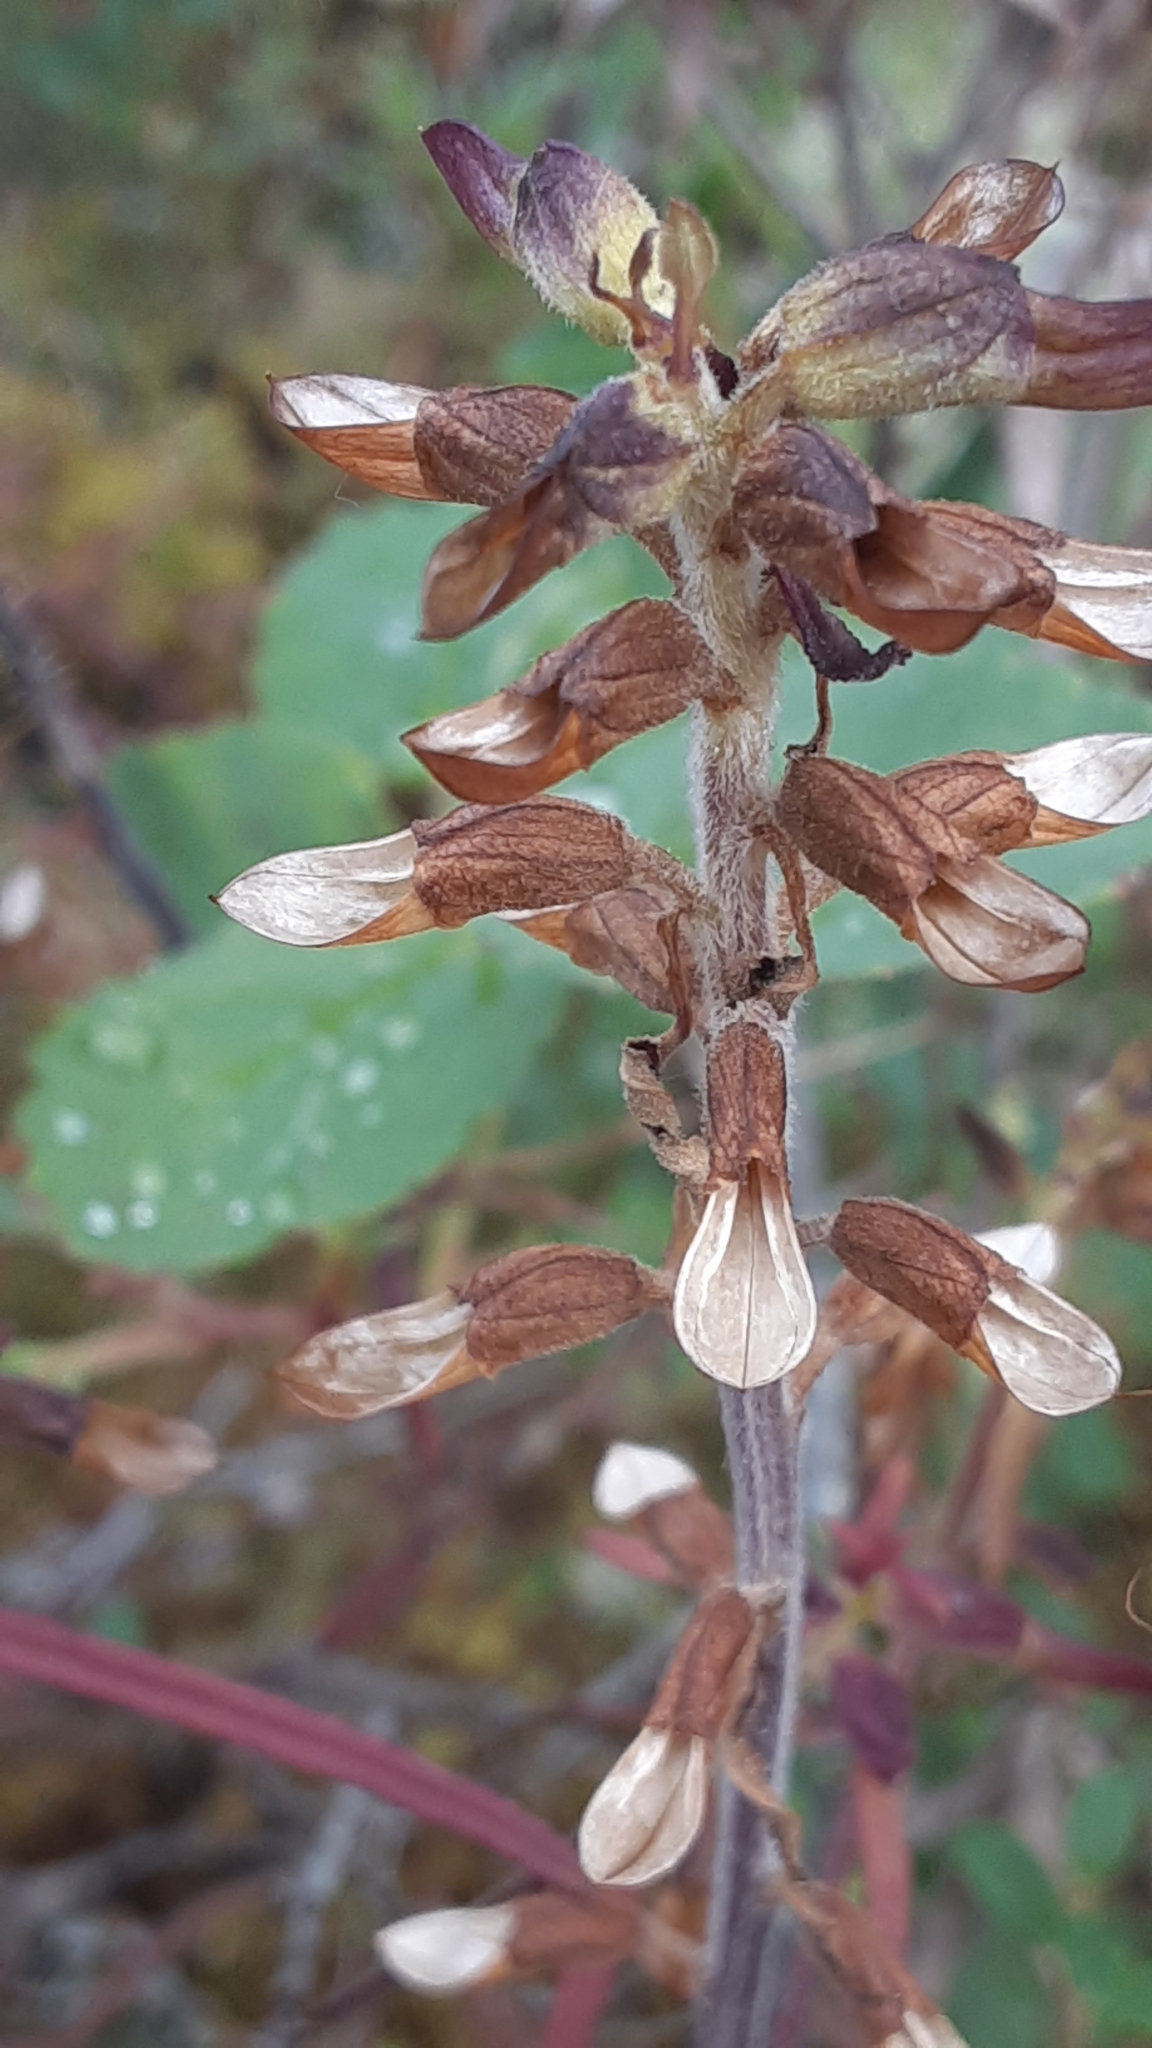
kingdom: Plantae
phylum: Tracheophyta
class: Magnoliopsida
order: Lamiales
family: Orobanchaceae
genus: Pedicularis
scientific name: Pedicularis labradorica
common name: Labrador lousewort
